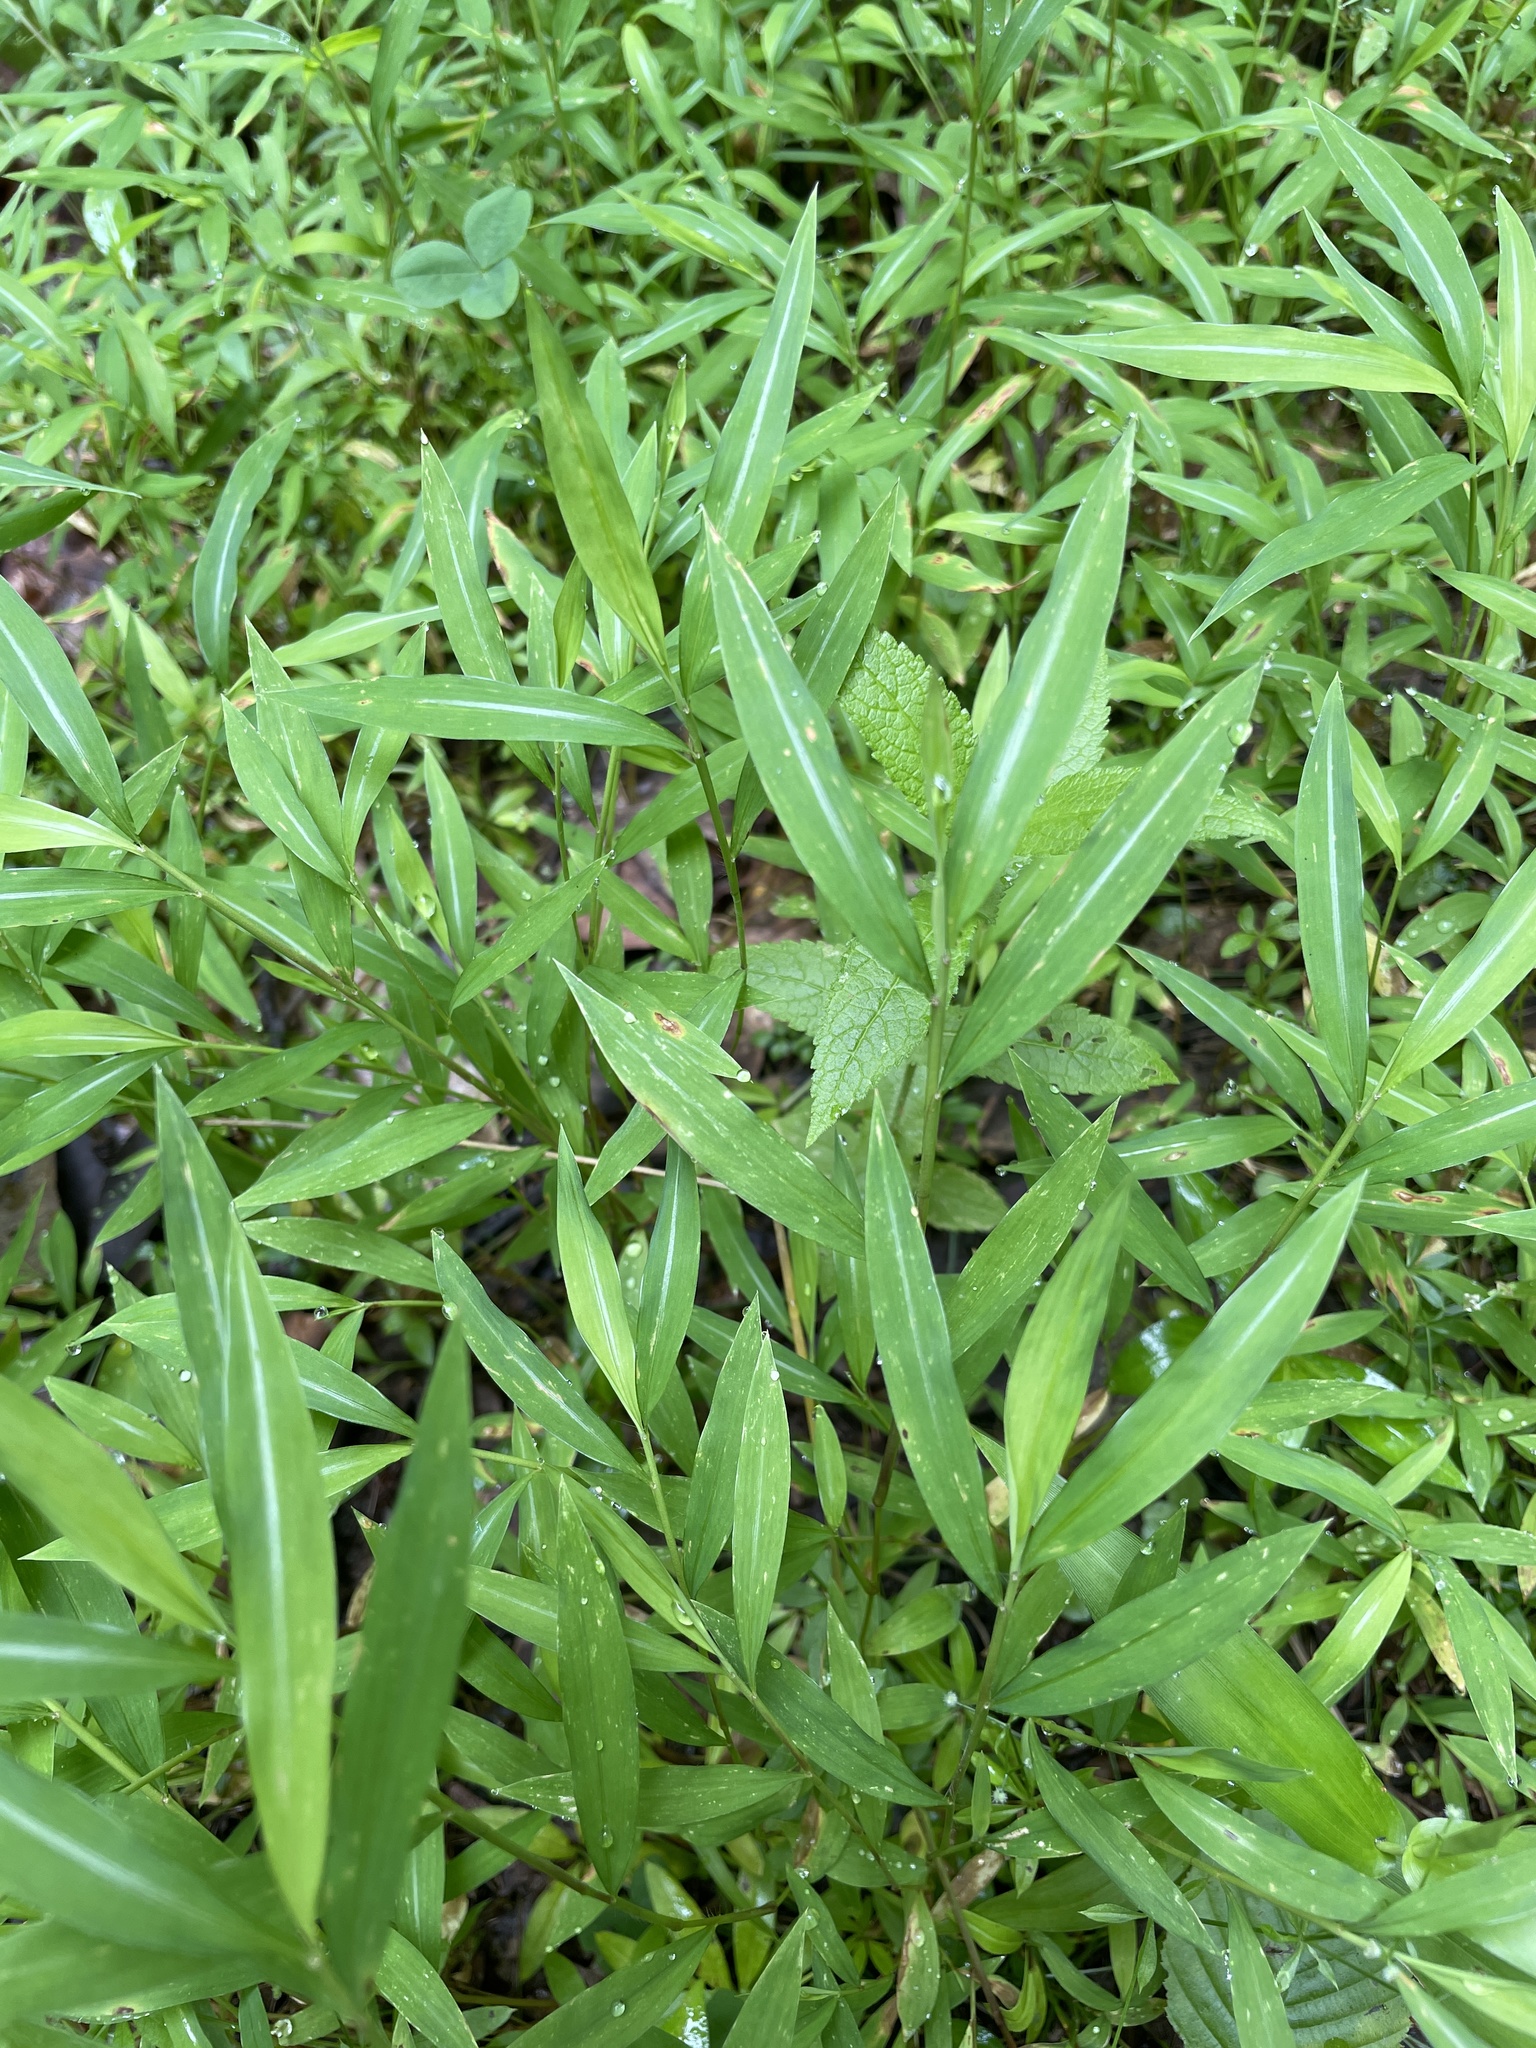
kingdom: Plantae
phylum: Tracheophyta
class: Liliopsida
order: Poales
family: Poaceae
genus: Microstegium
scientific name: Microstegium vimineum
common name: Japanese stiltgrass
